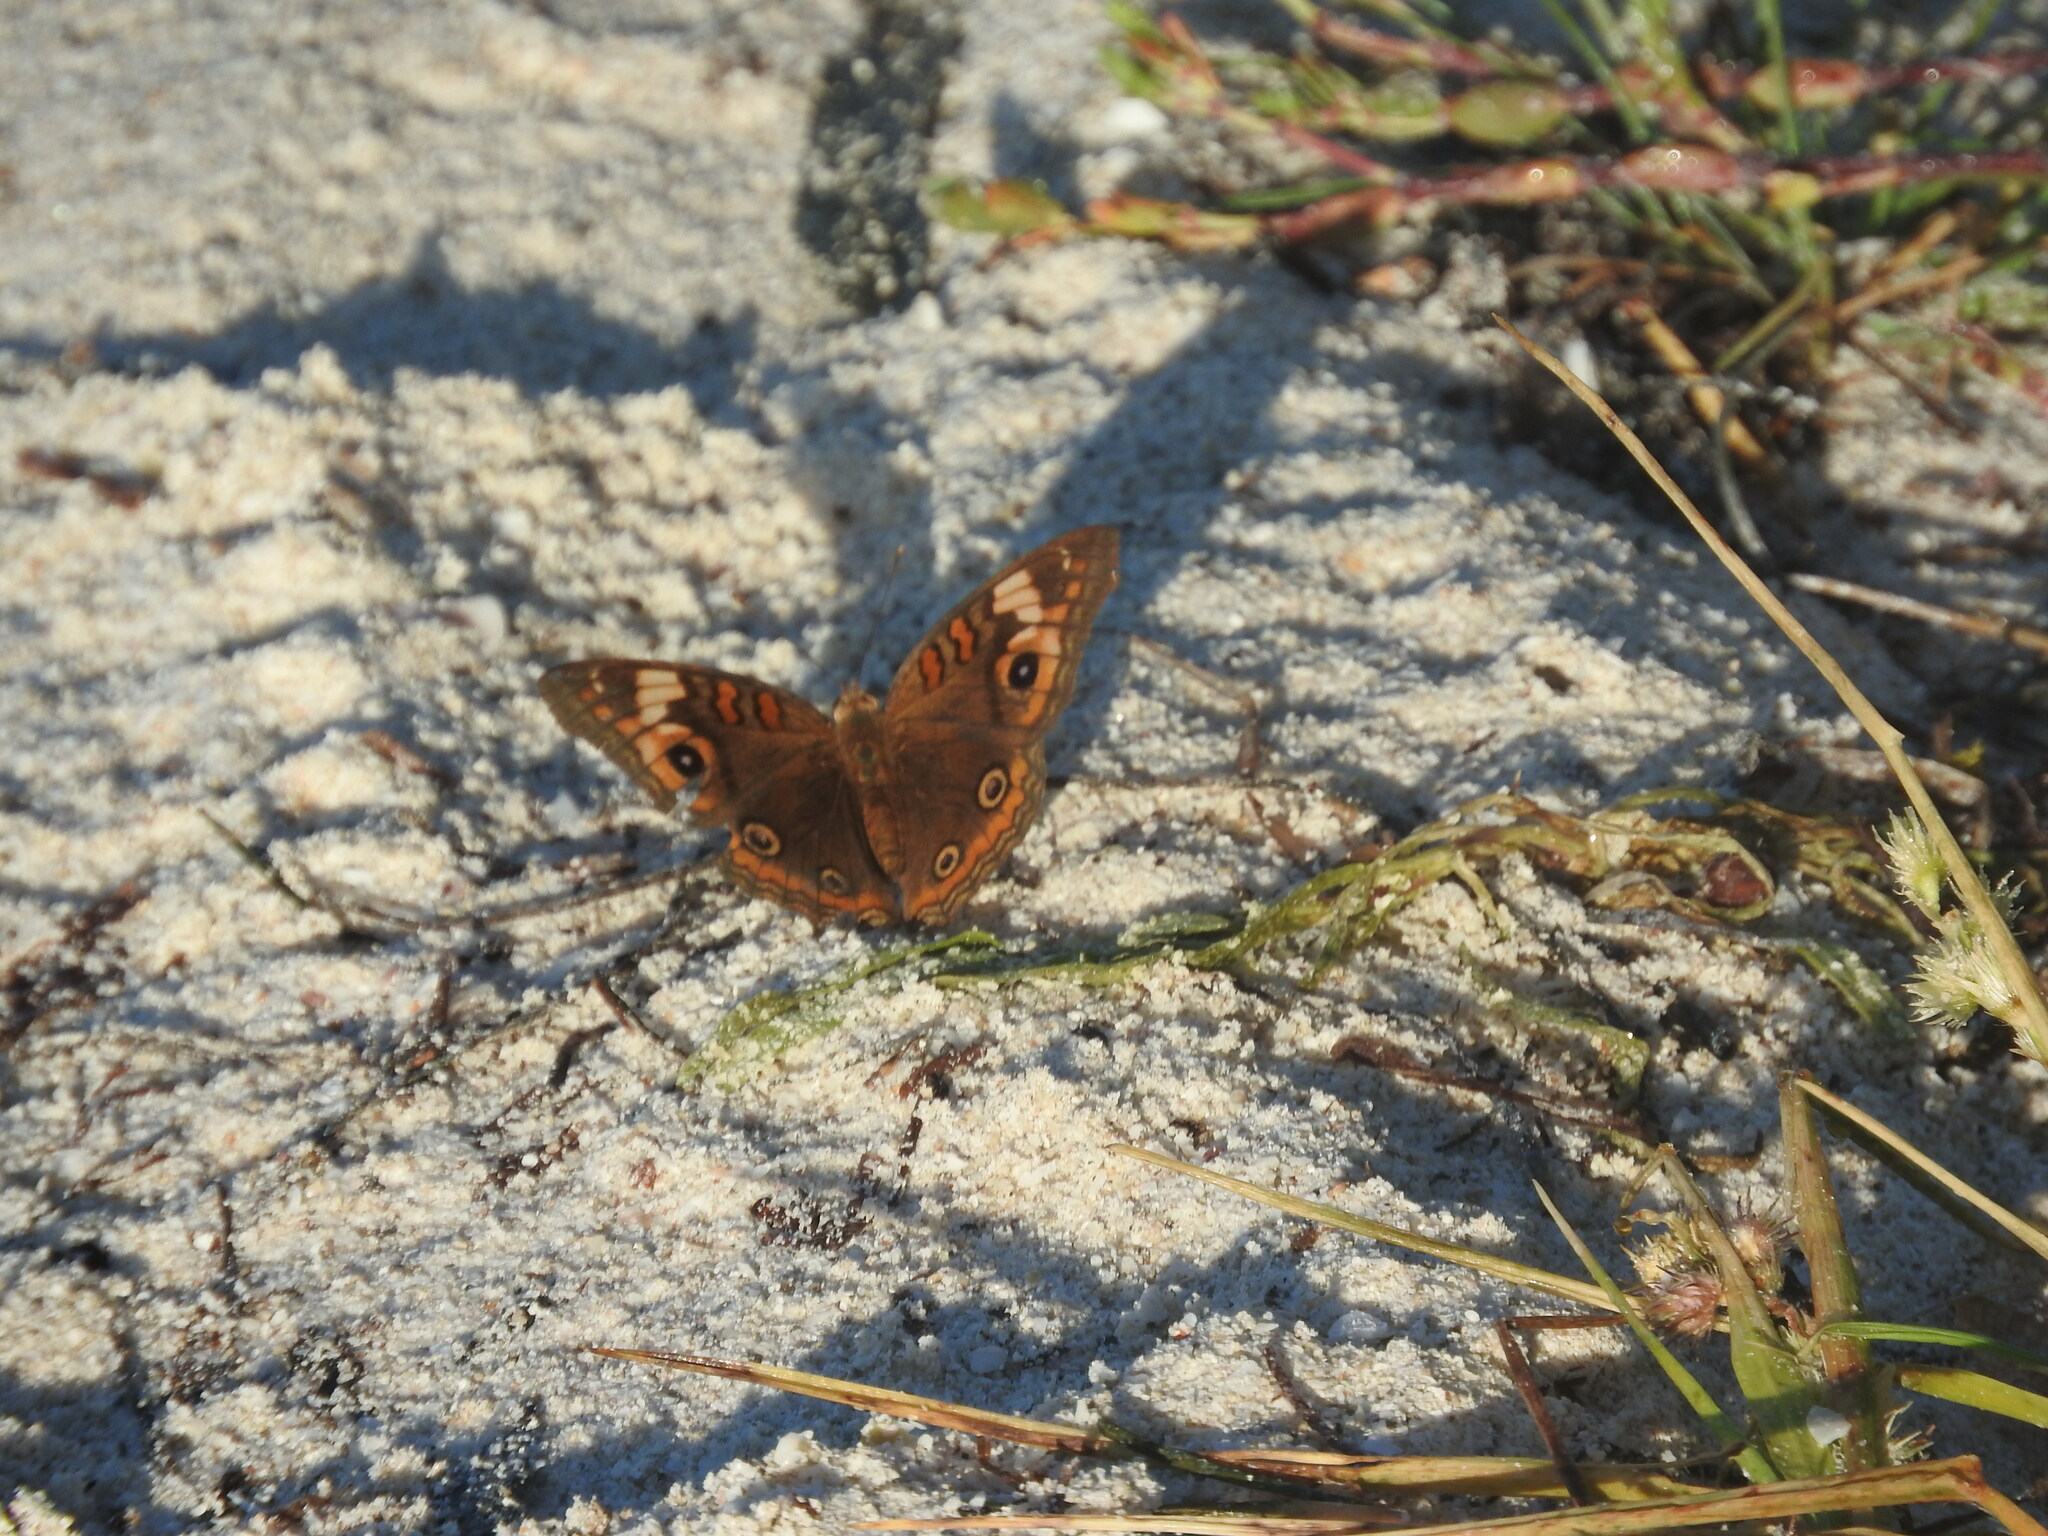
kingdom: Animalia
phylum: Arthropoda
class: Insecta
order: Lepidoptera
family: Nymphalidae
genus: Junonia
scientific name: Junonia neildi
